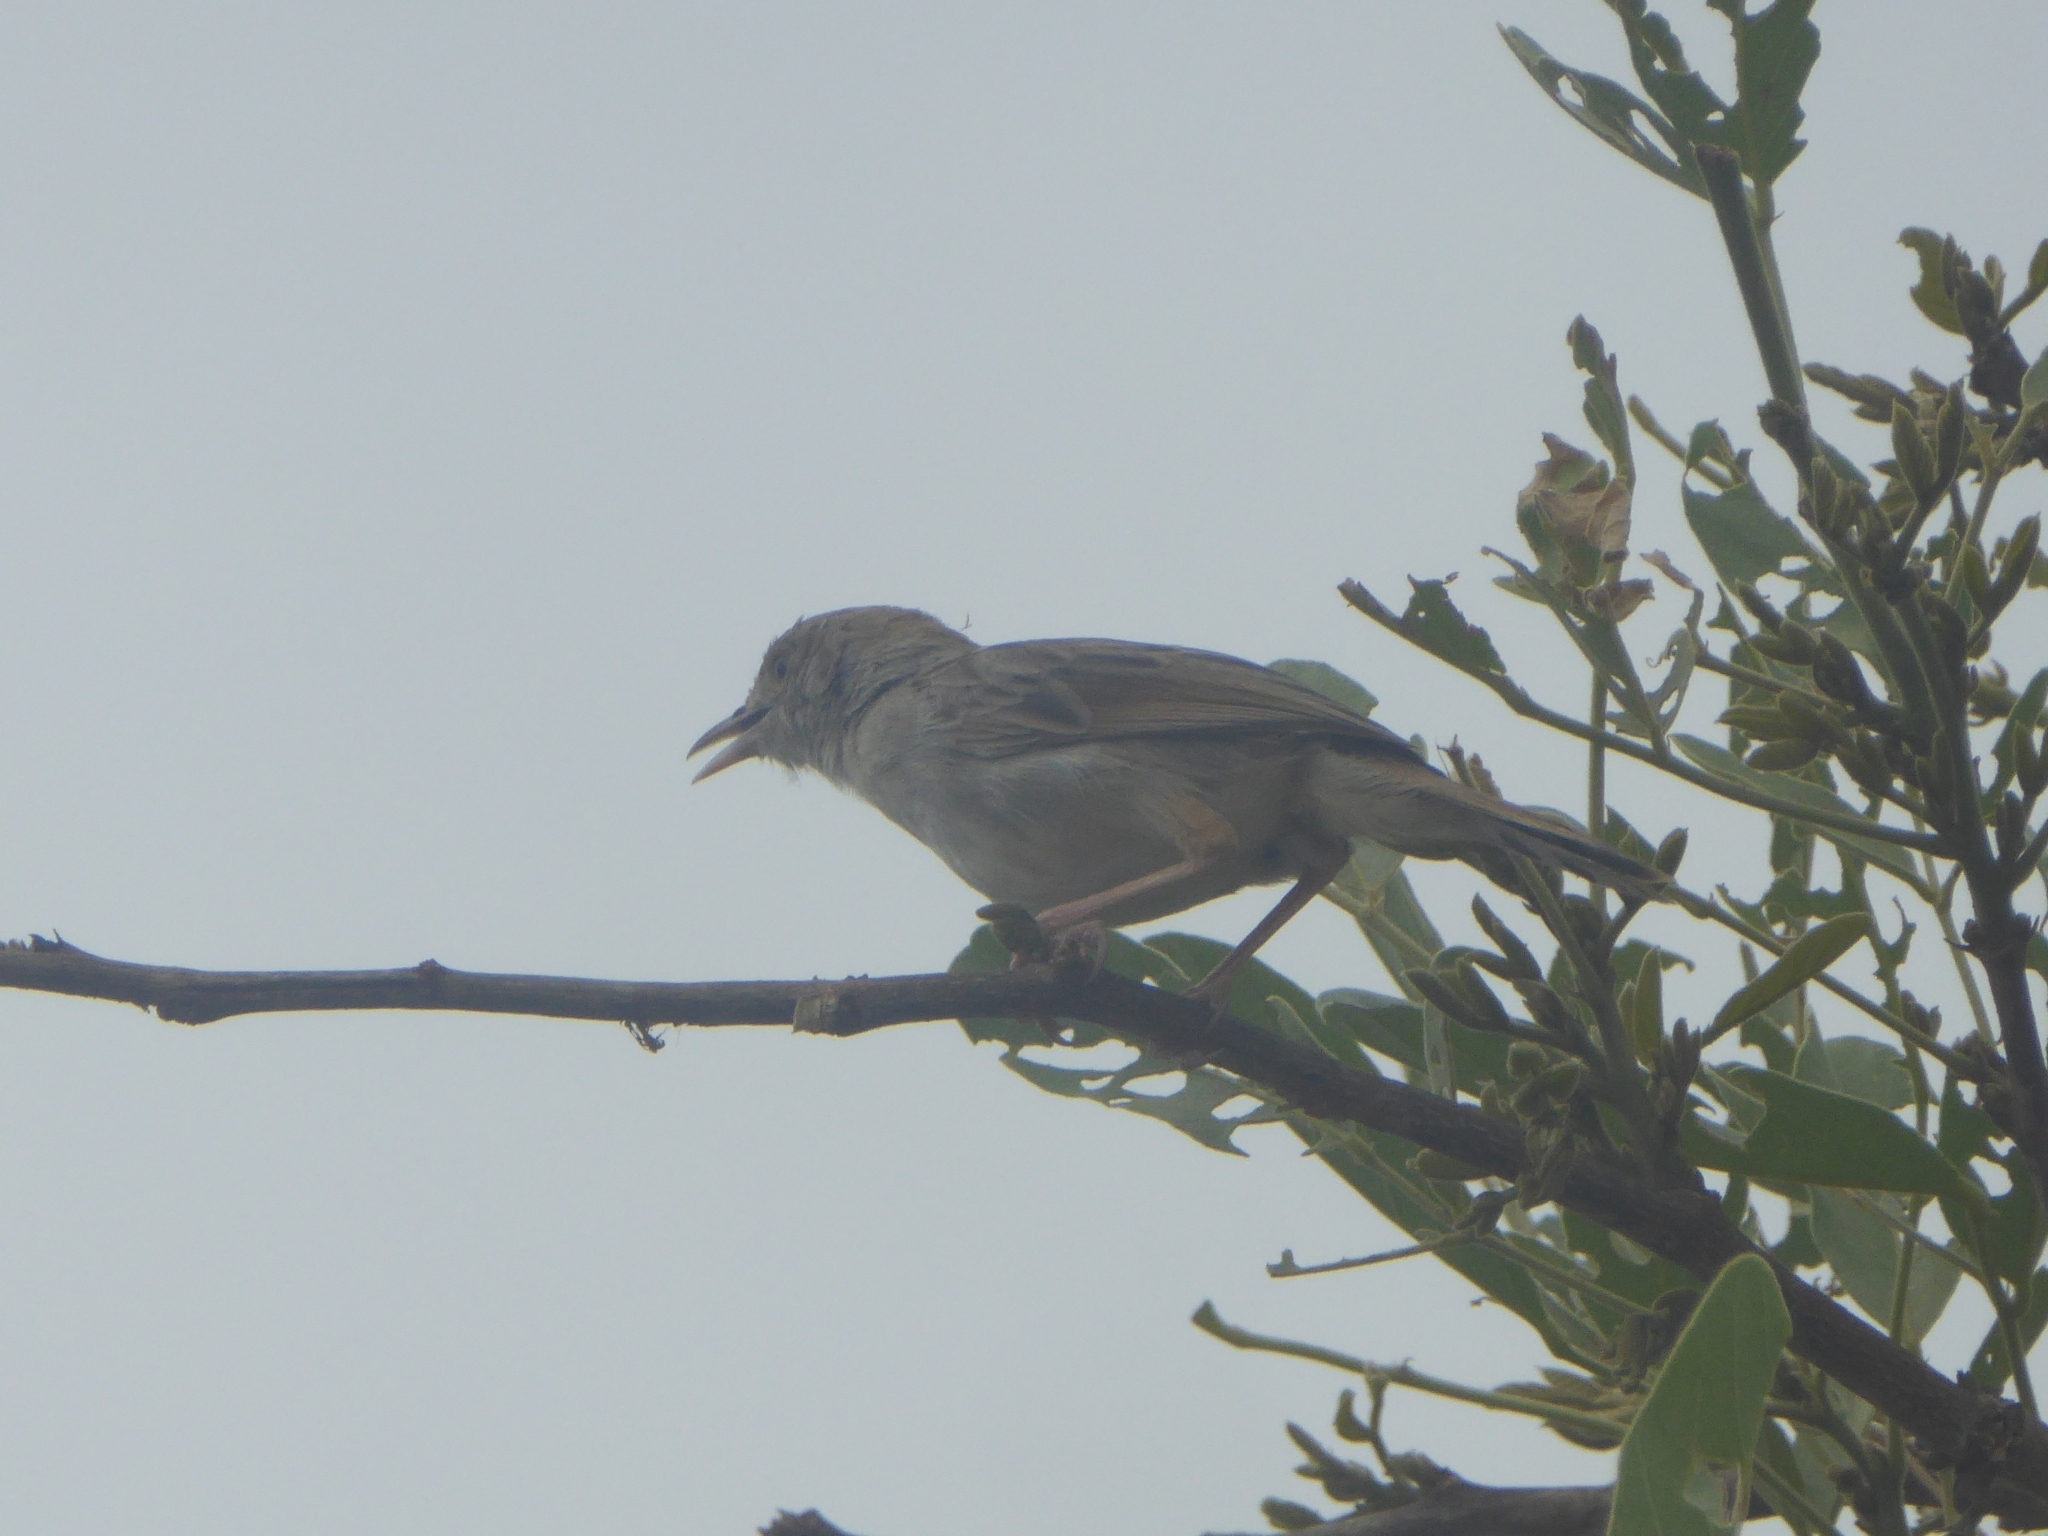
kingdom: Animalia
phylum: Chordata
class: Aves
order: Passeriformes
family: Cisticolidae
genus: Cisticola
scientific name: Cisticola chiniana
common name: Rattling cisticola
